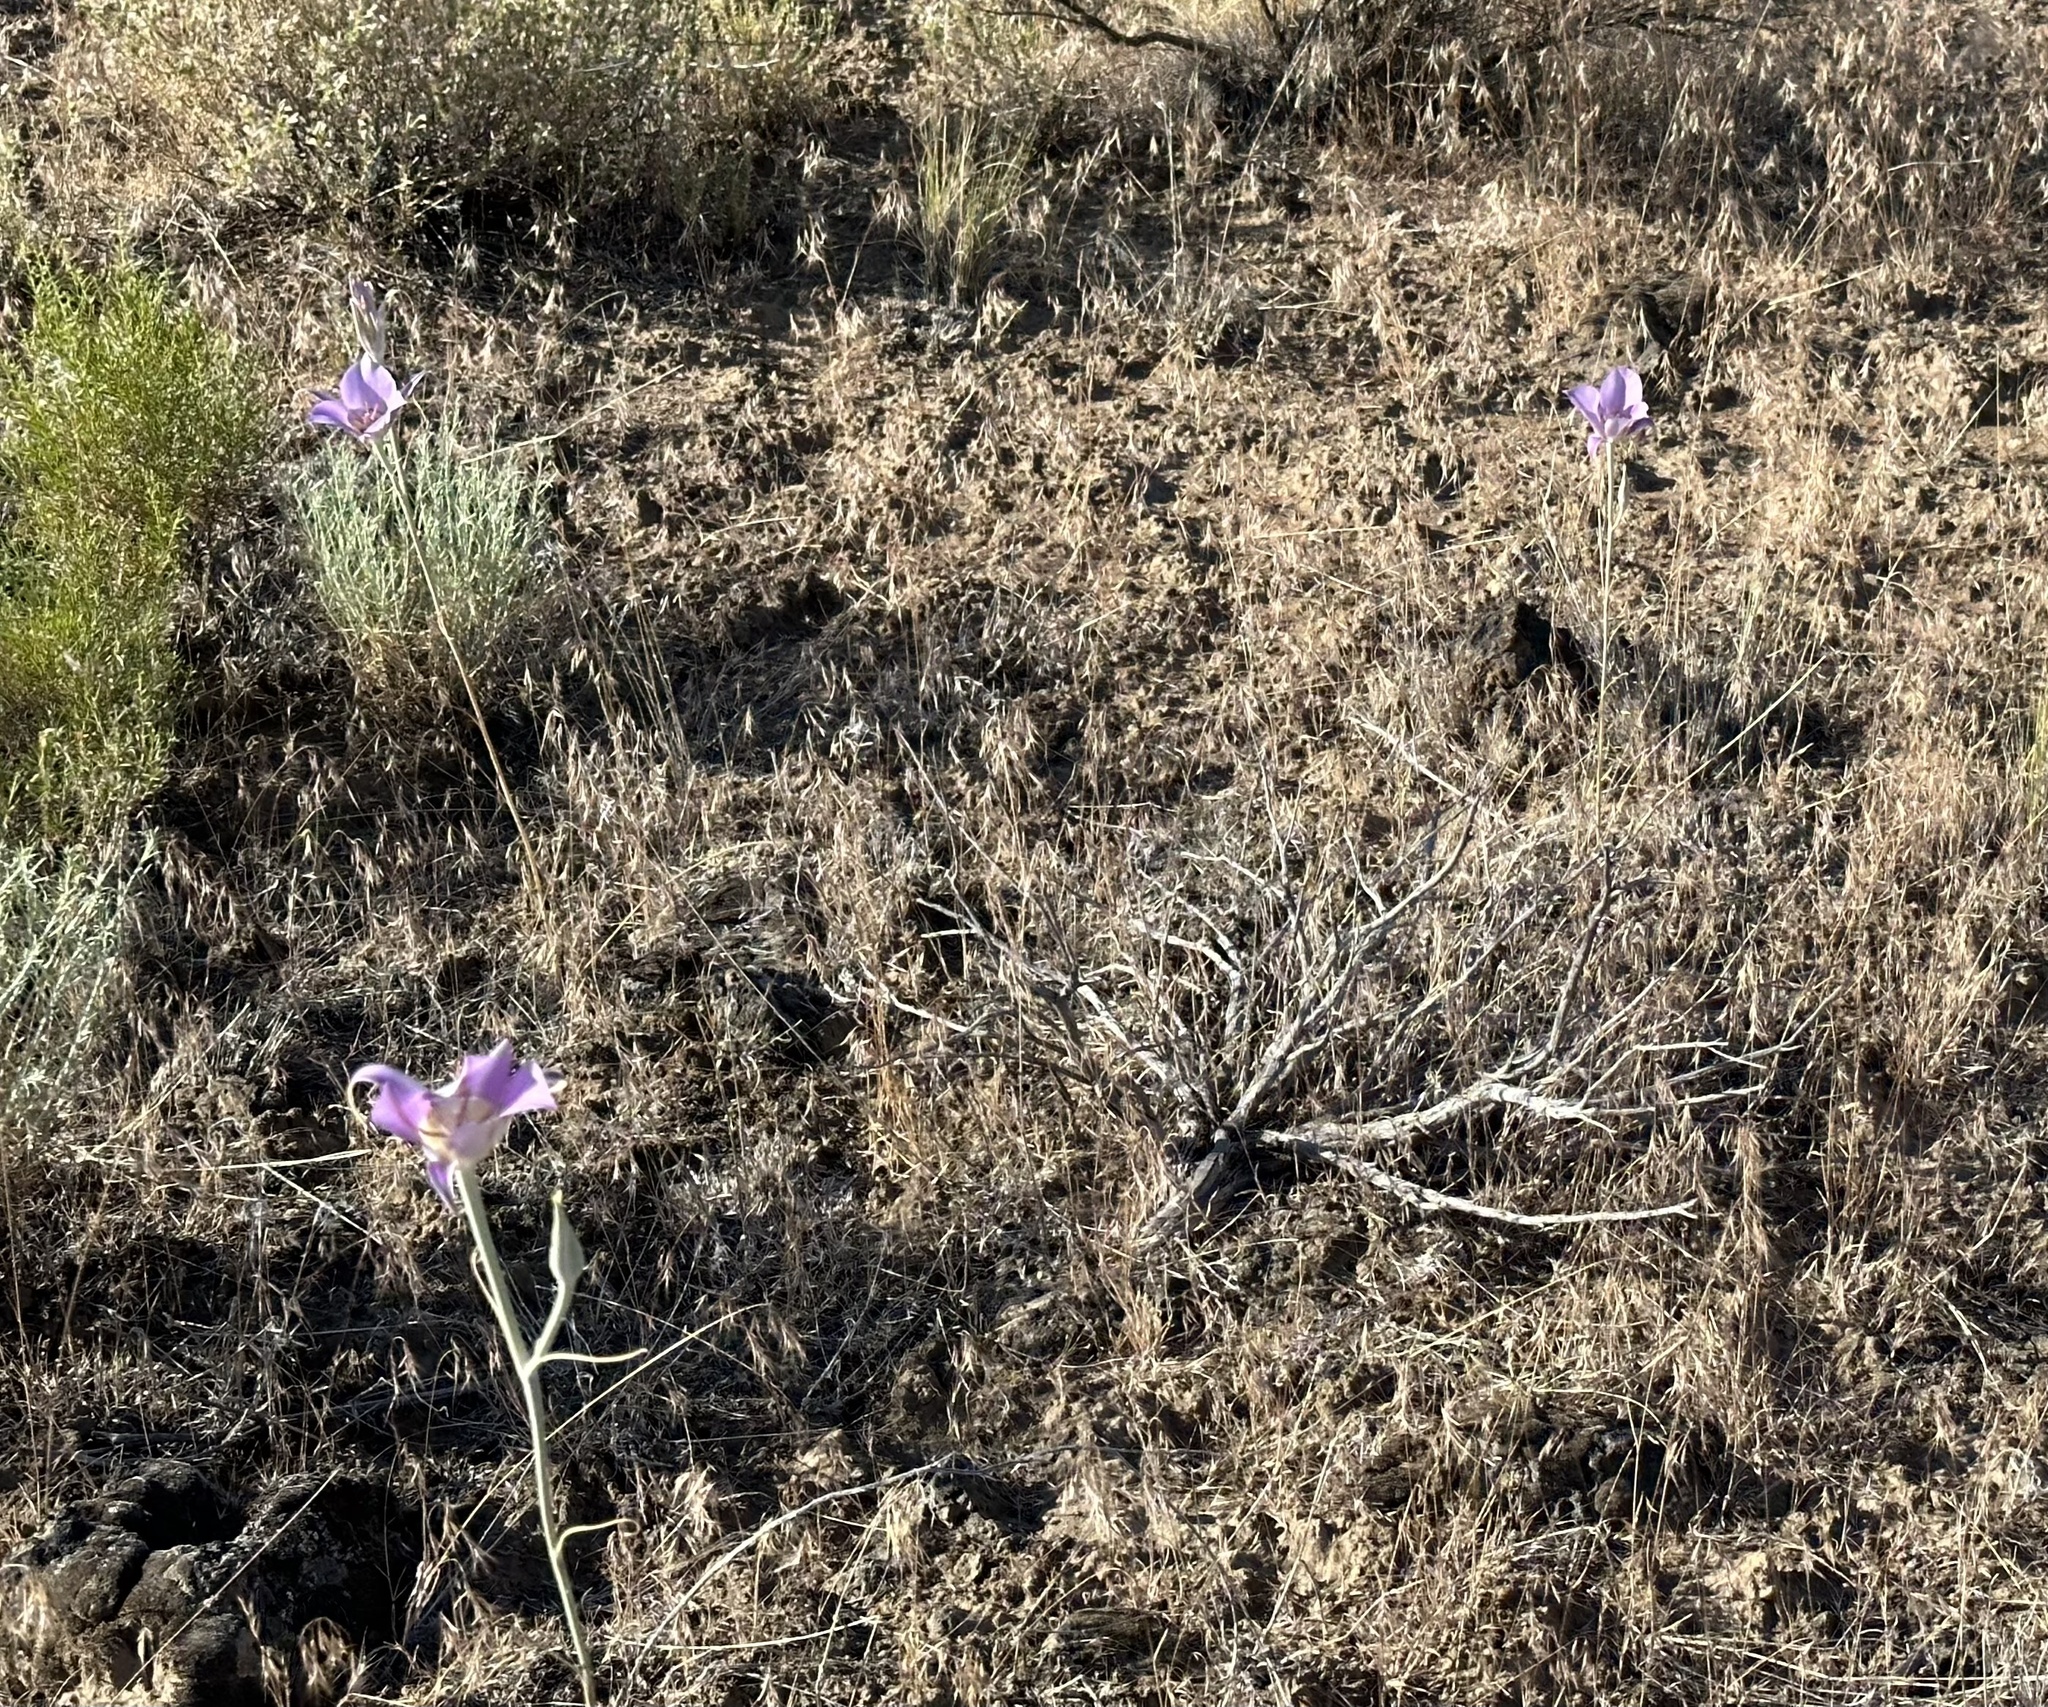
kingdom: Plantae
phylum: Tracheophyta
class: Liliopsida
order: Liliales
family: Liliaceae
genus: Calochortus
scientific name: Calochortus macrocarpus
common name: Green-band mariposa lily
